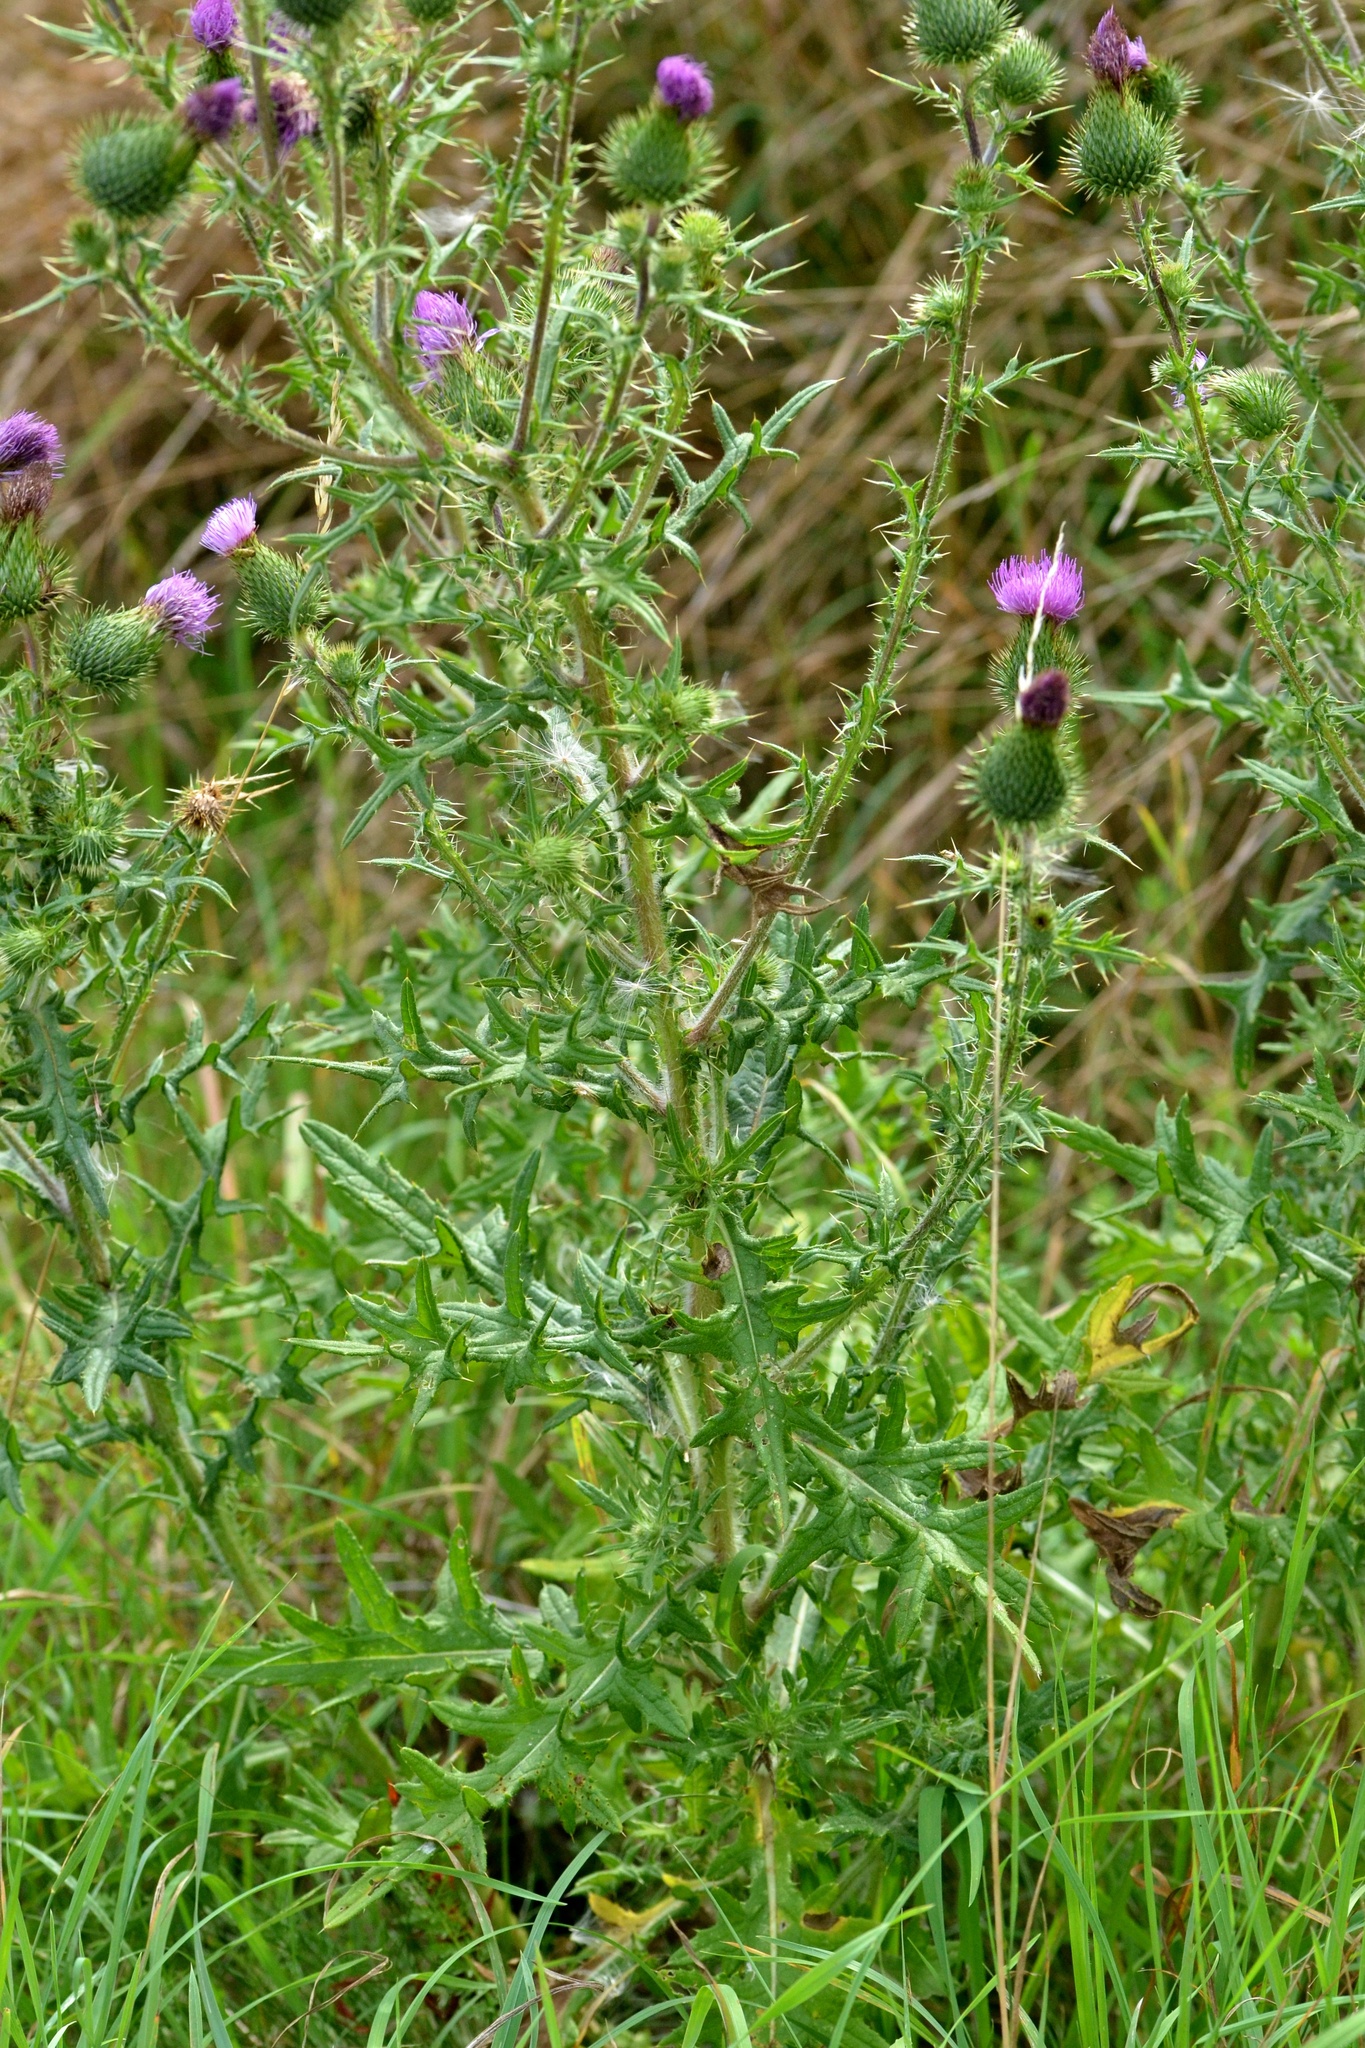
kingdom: Plantae
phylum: Tracheophyta
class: Magnoliopsida
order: Asterales
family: Asteraceae
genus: Cirsium
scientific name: Cirsium vulgare
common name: Bull thistle
